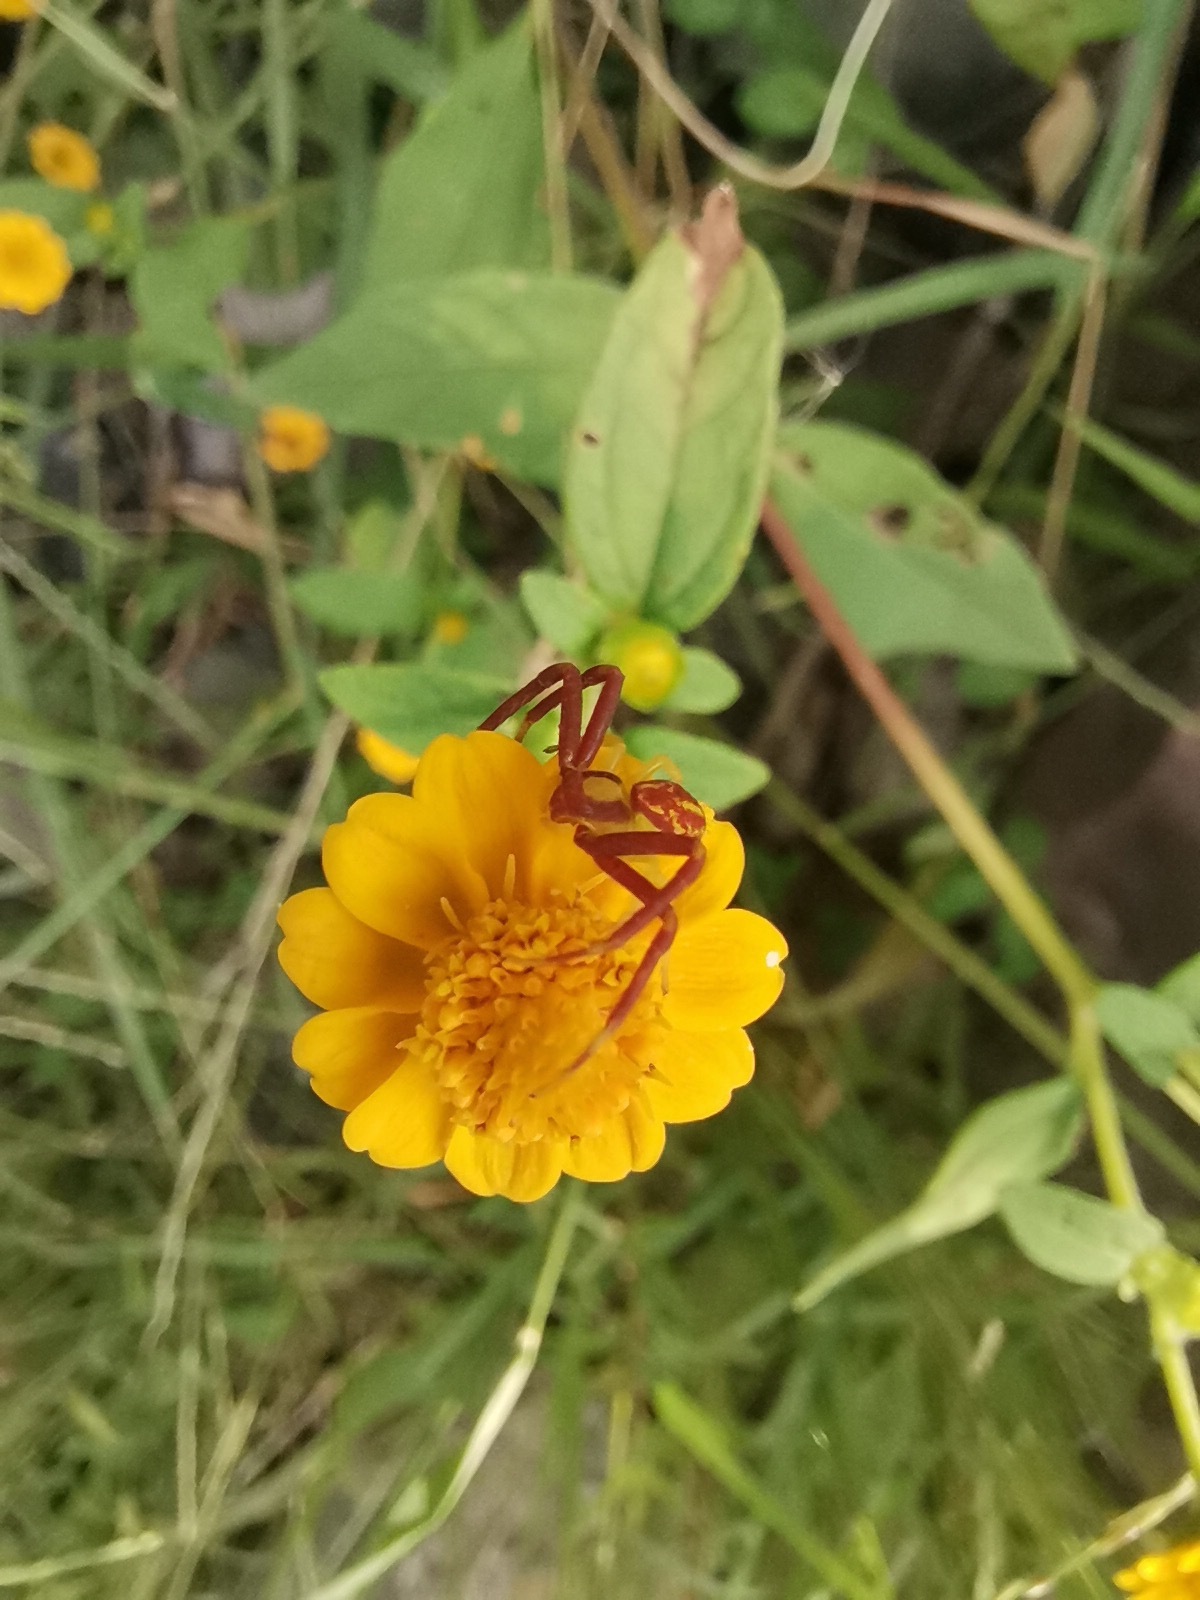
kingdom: Plantae
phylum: Tracheophyta
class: Magnoliopsida
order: Asterales
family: Asteraceae
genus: Adenophyllum
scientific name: Adenophyllum cancellatum
